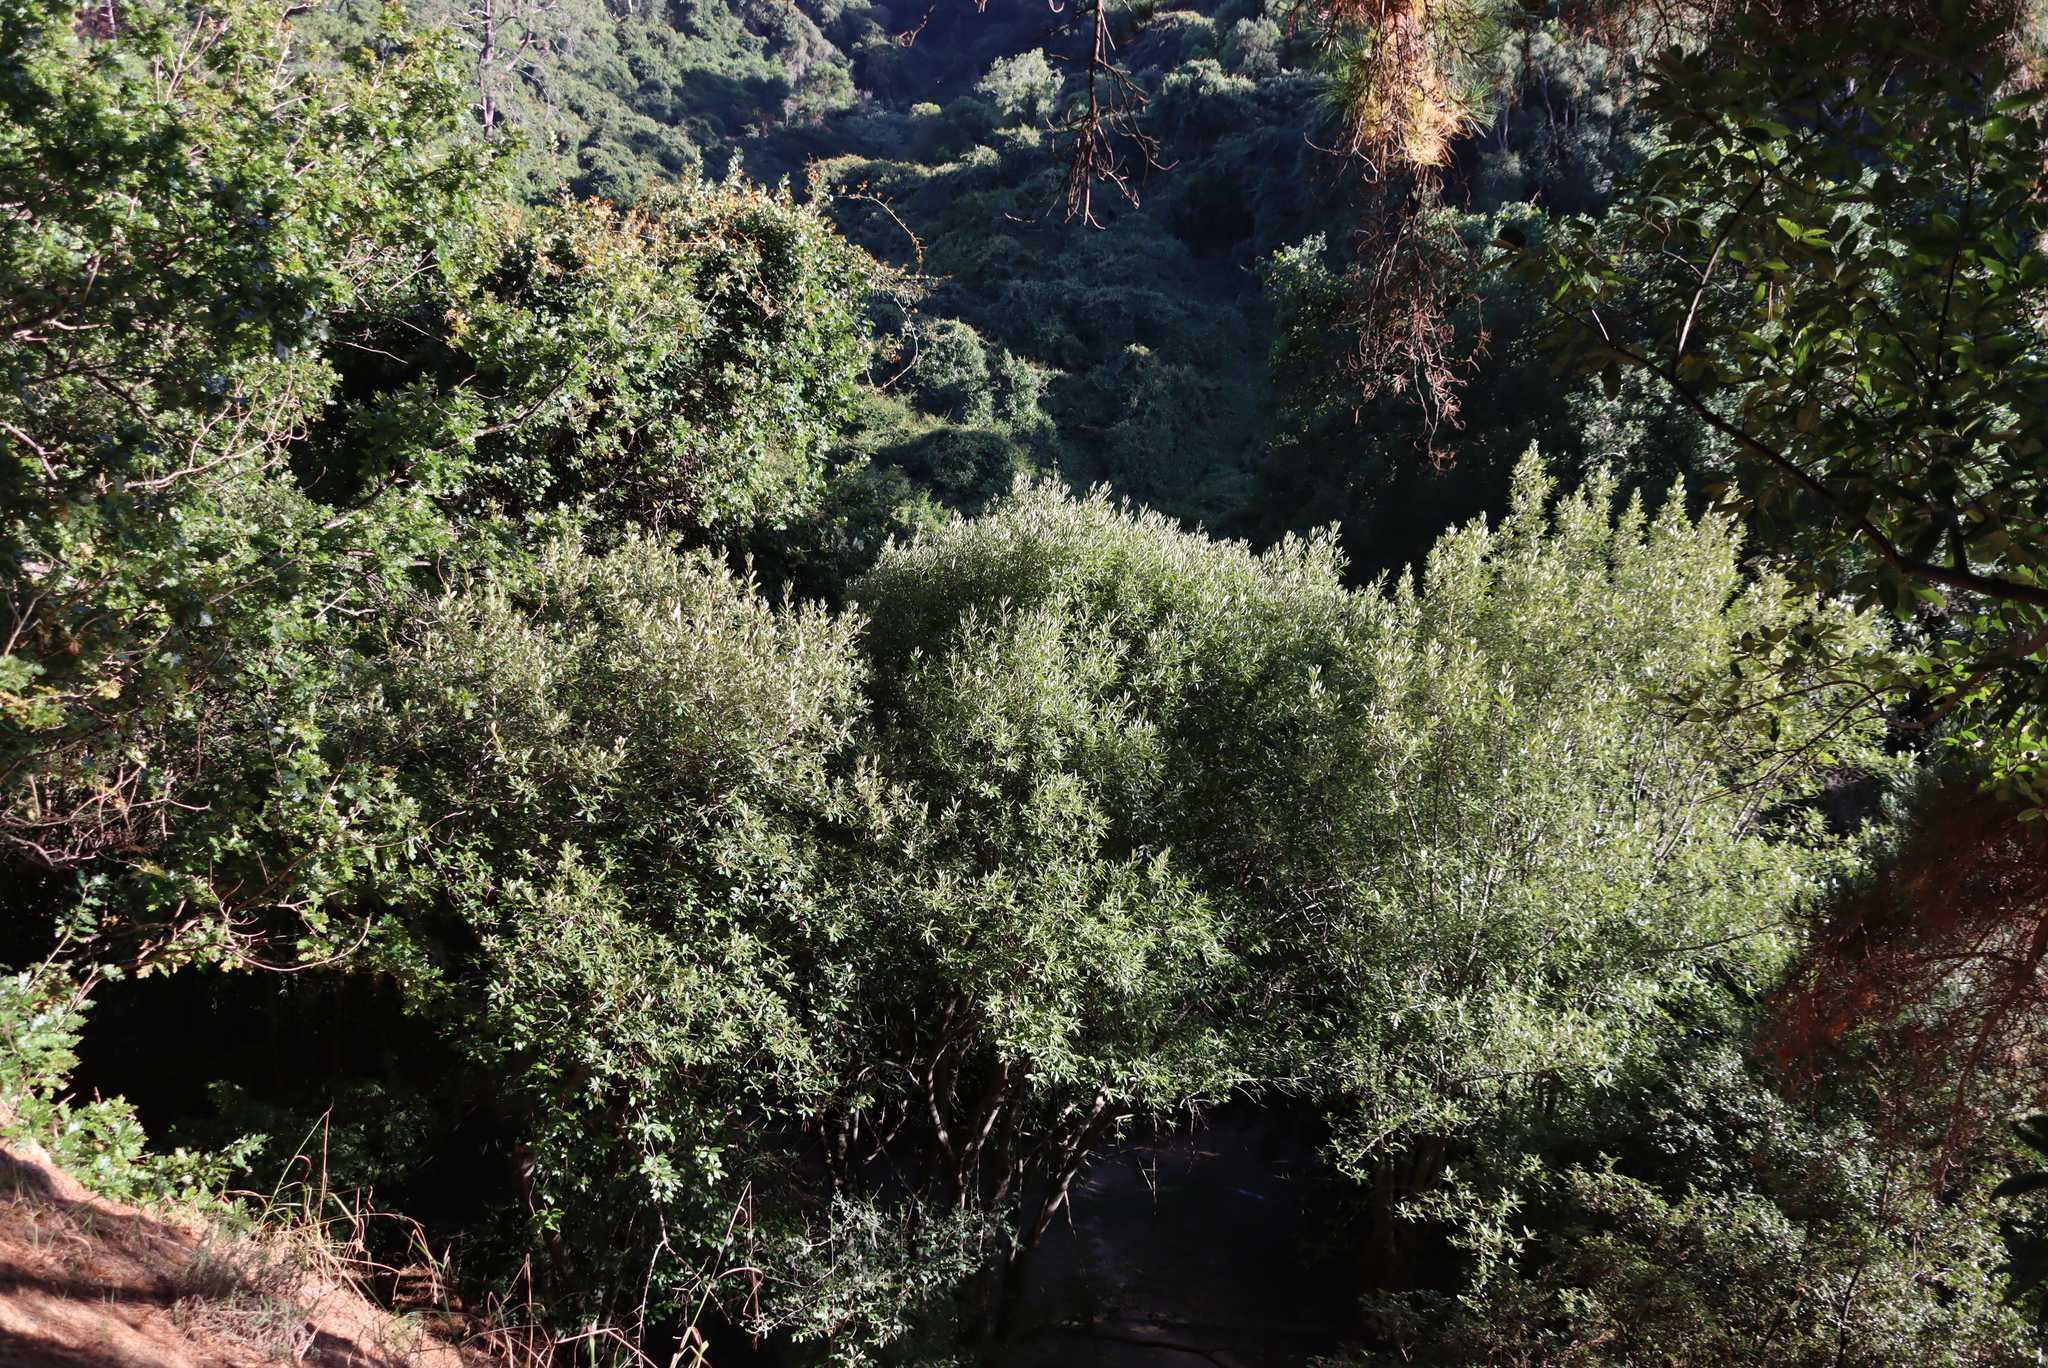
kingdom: Plantae
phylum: Tracheophyta
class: Magnoliopsida
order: Malpighiales
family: Achariaceae
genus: Kiggelaria
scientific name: Kiggelaria africana
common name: Wild peach
